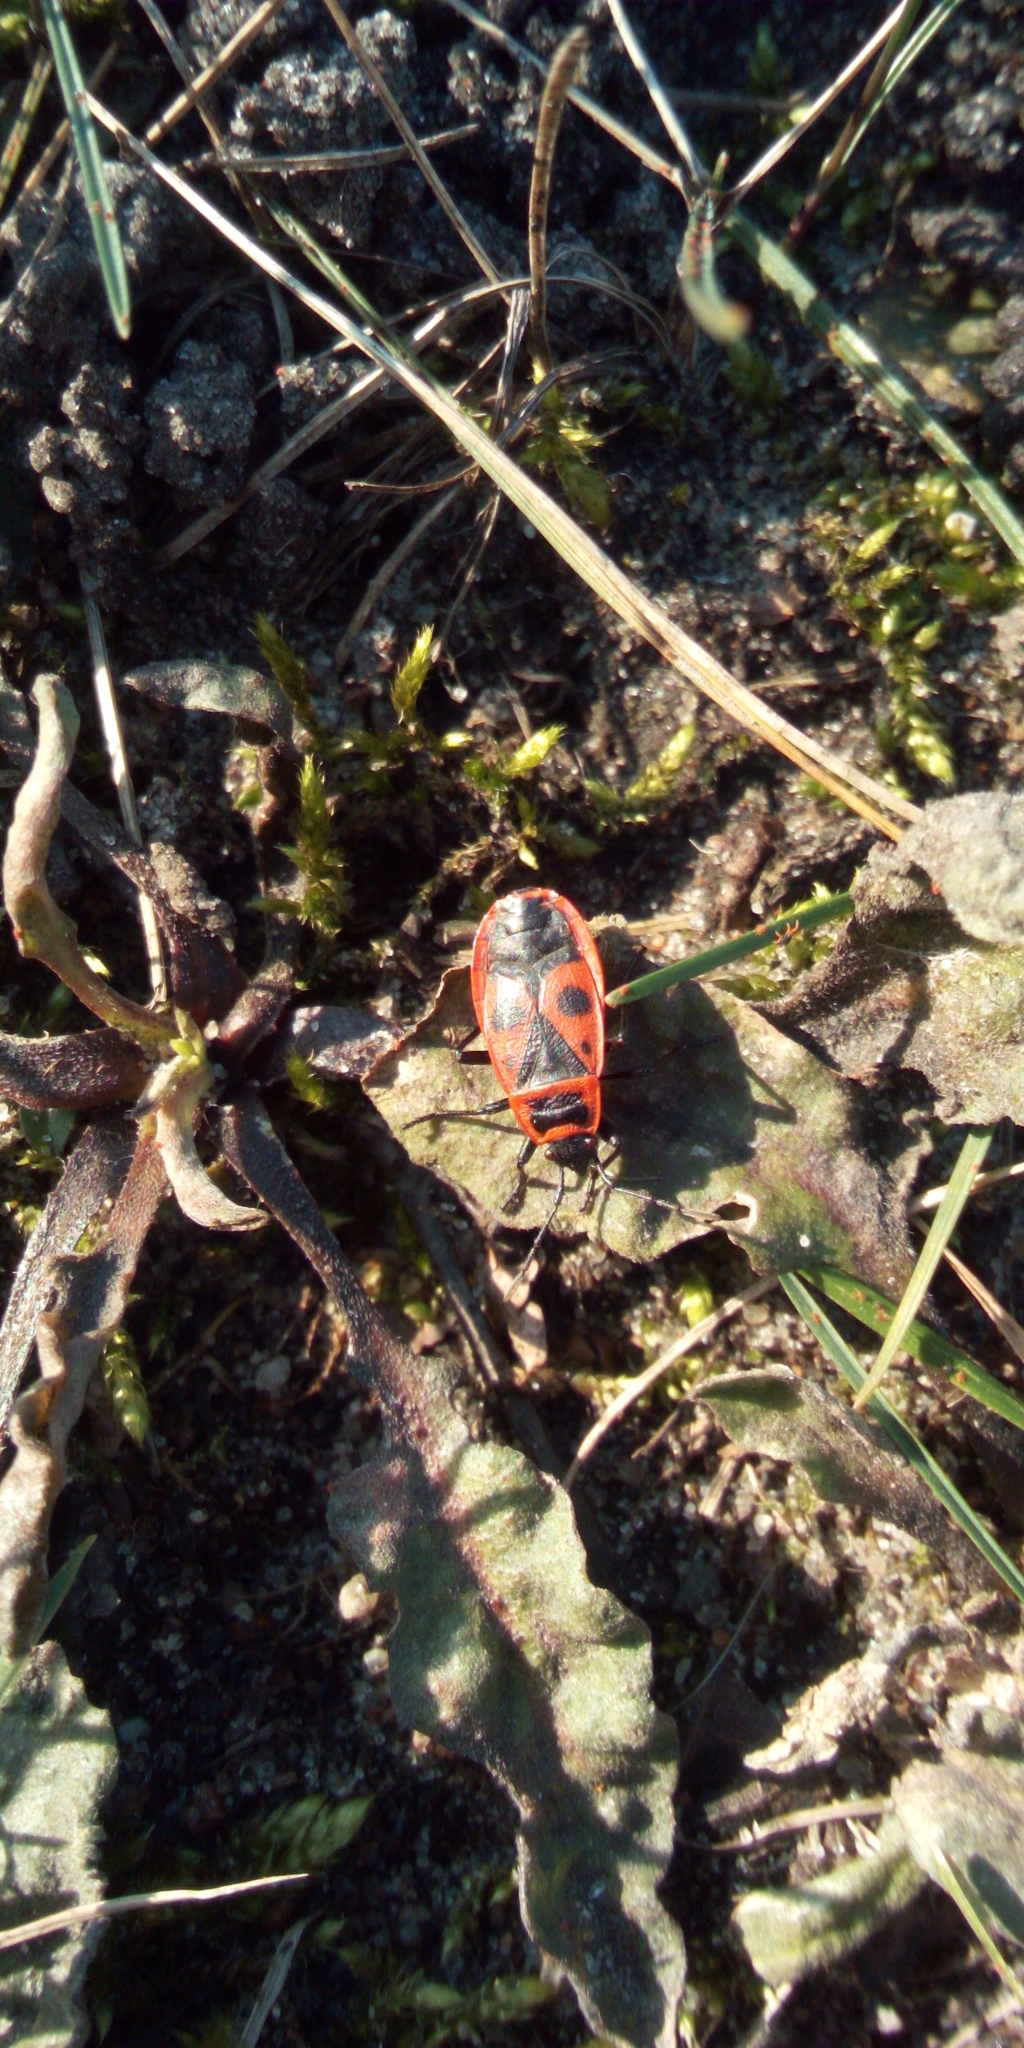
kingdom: Animalia
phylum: Arthropoda
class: Insecta
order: Hemiptera
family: Pyrrhocoridae
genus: Pyrrhocoris
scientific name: Pyrrhocoris apterus
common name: Firebug
